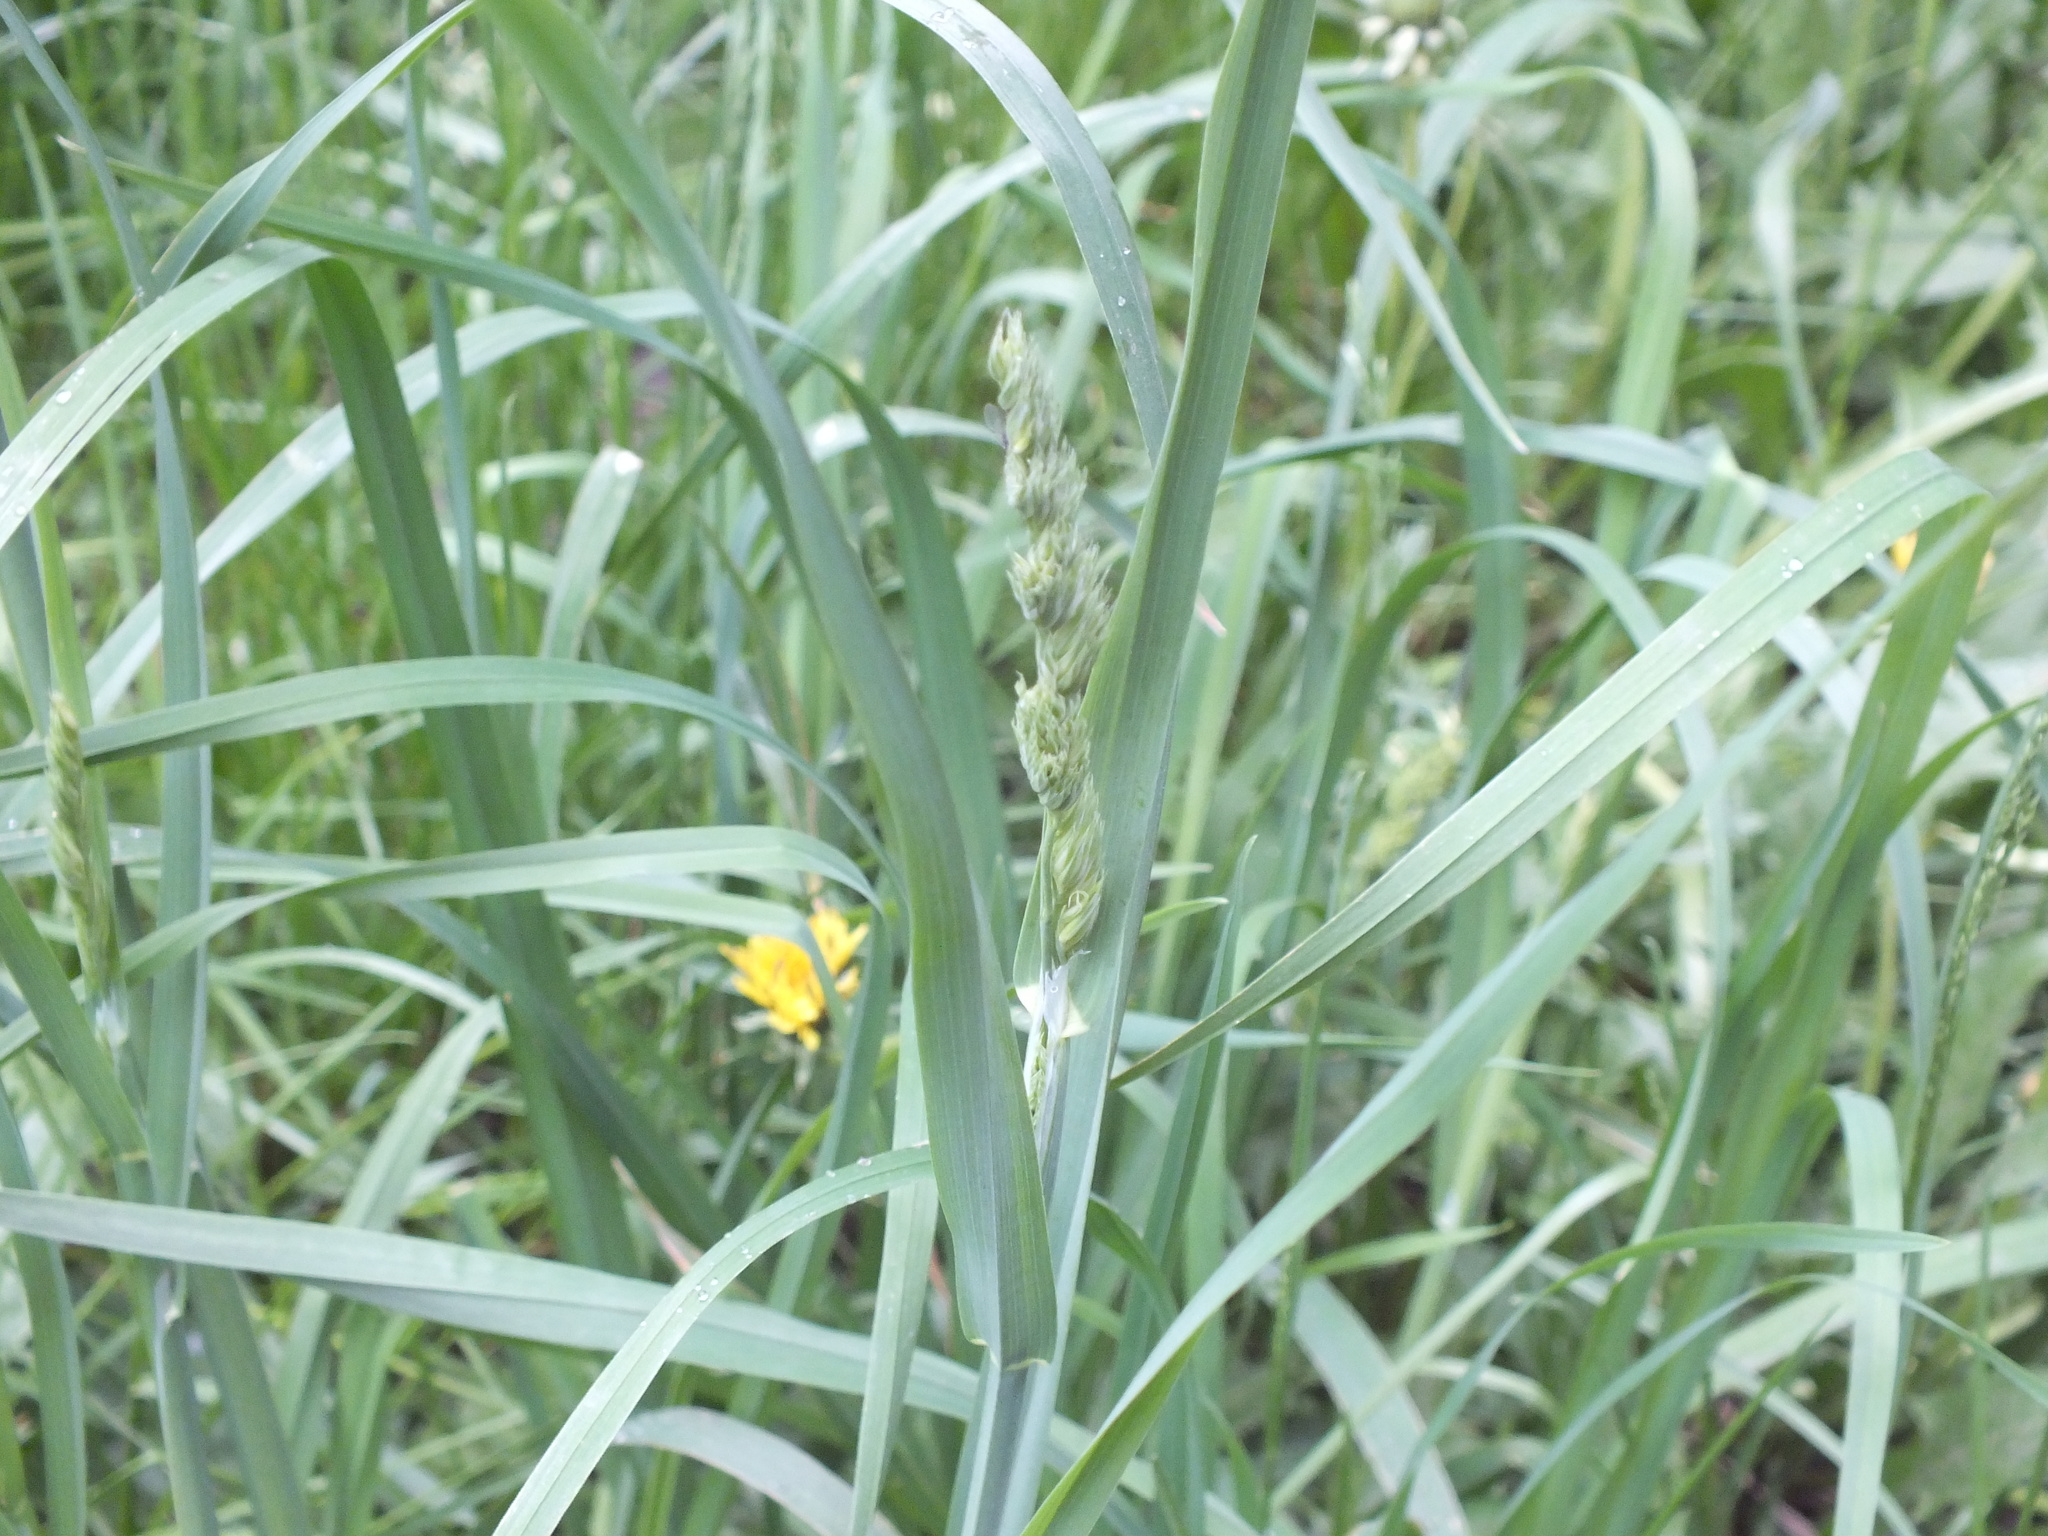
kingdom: Plantae
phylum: Tracheophyta
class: Liliopsida
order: Poales
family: Poaceae
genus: Dactylis
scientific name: Dactylis glomerata
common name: Orchardgrass
